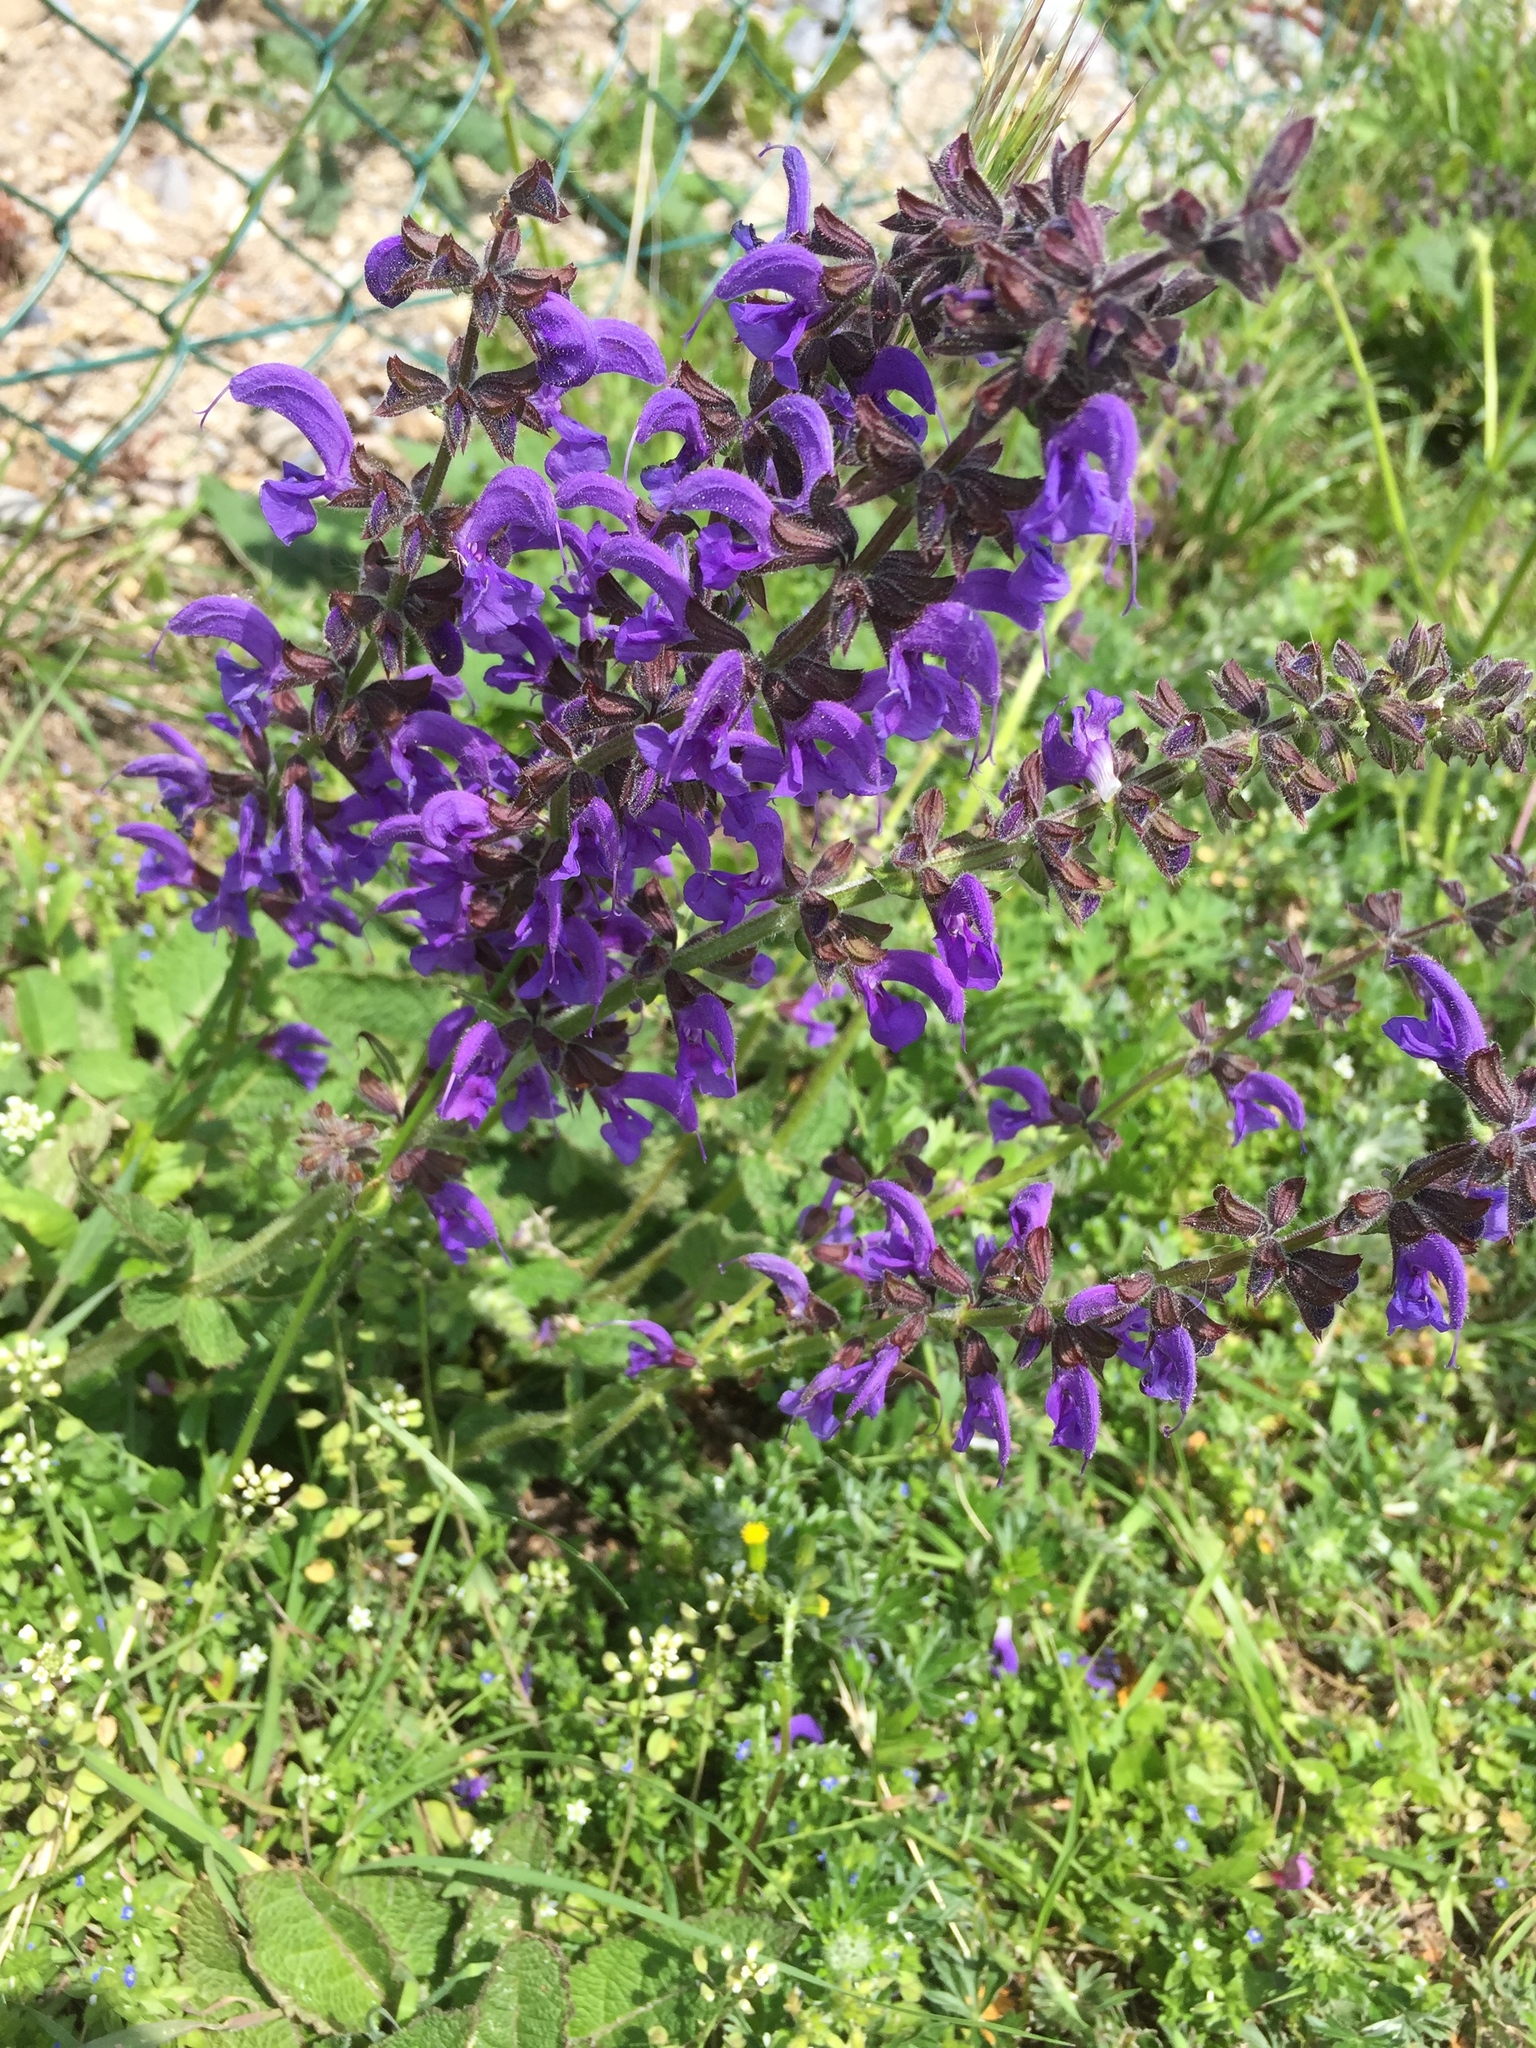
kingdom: Plantae
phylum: Tracheophyta
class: Magnoliopsida
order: Lamiales
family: Lamiaceae
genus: Salvia
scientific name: Salvia pratensis
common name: Meadow sage
